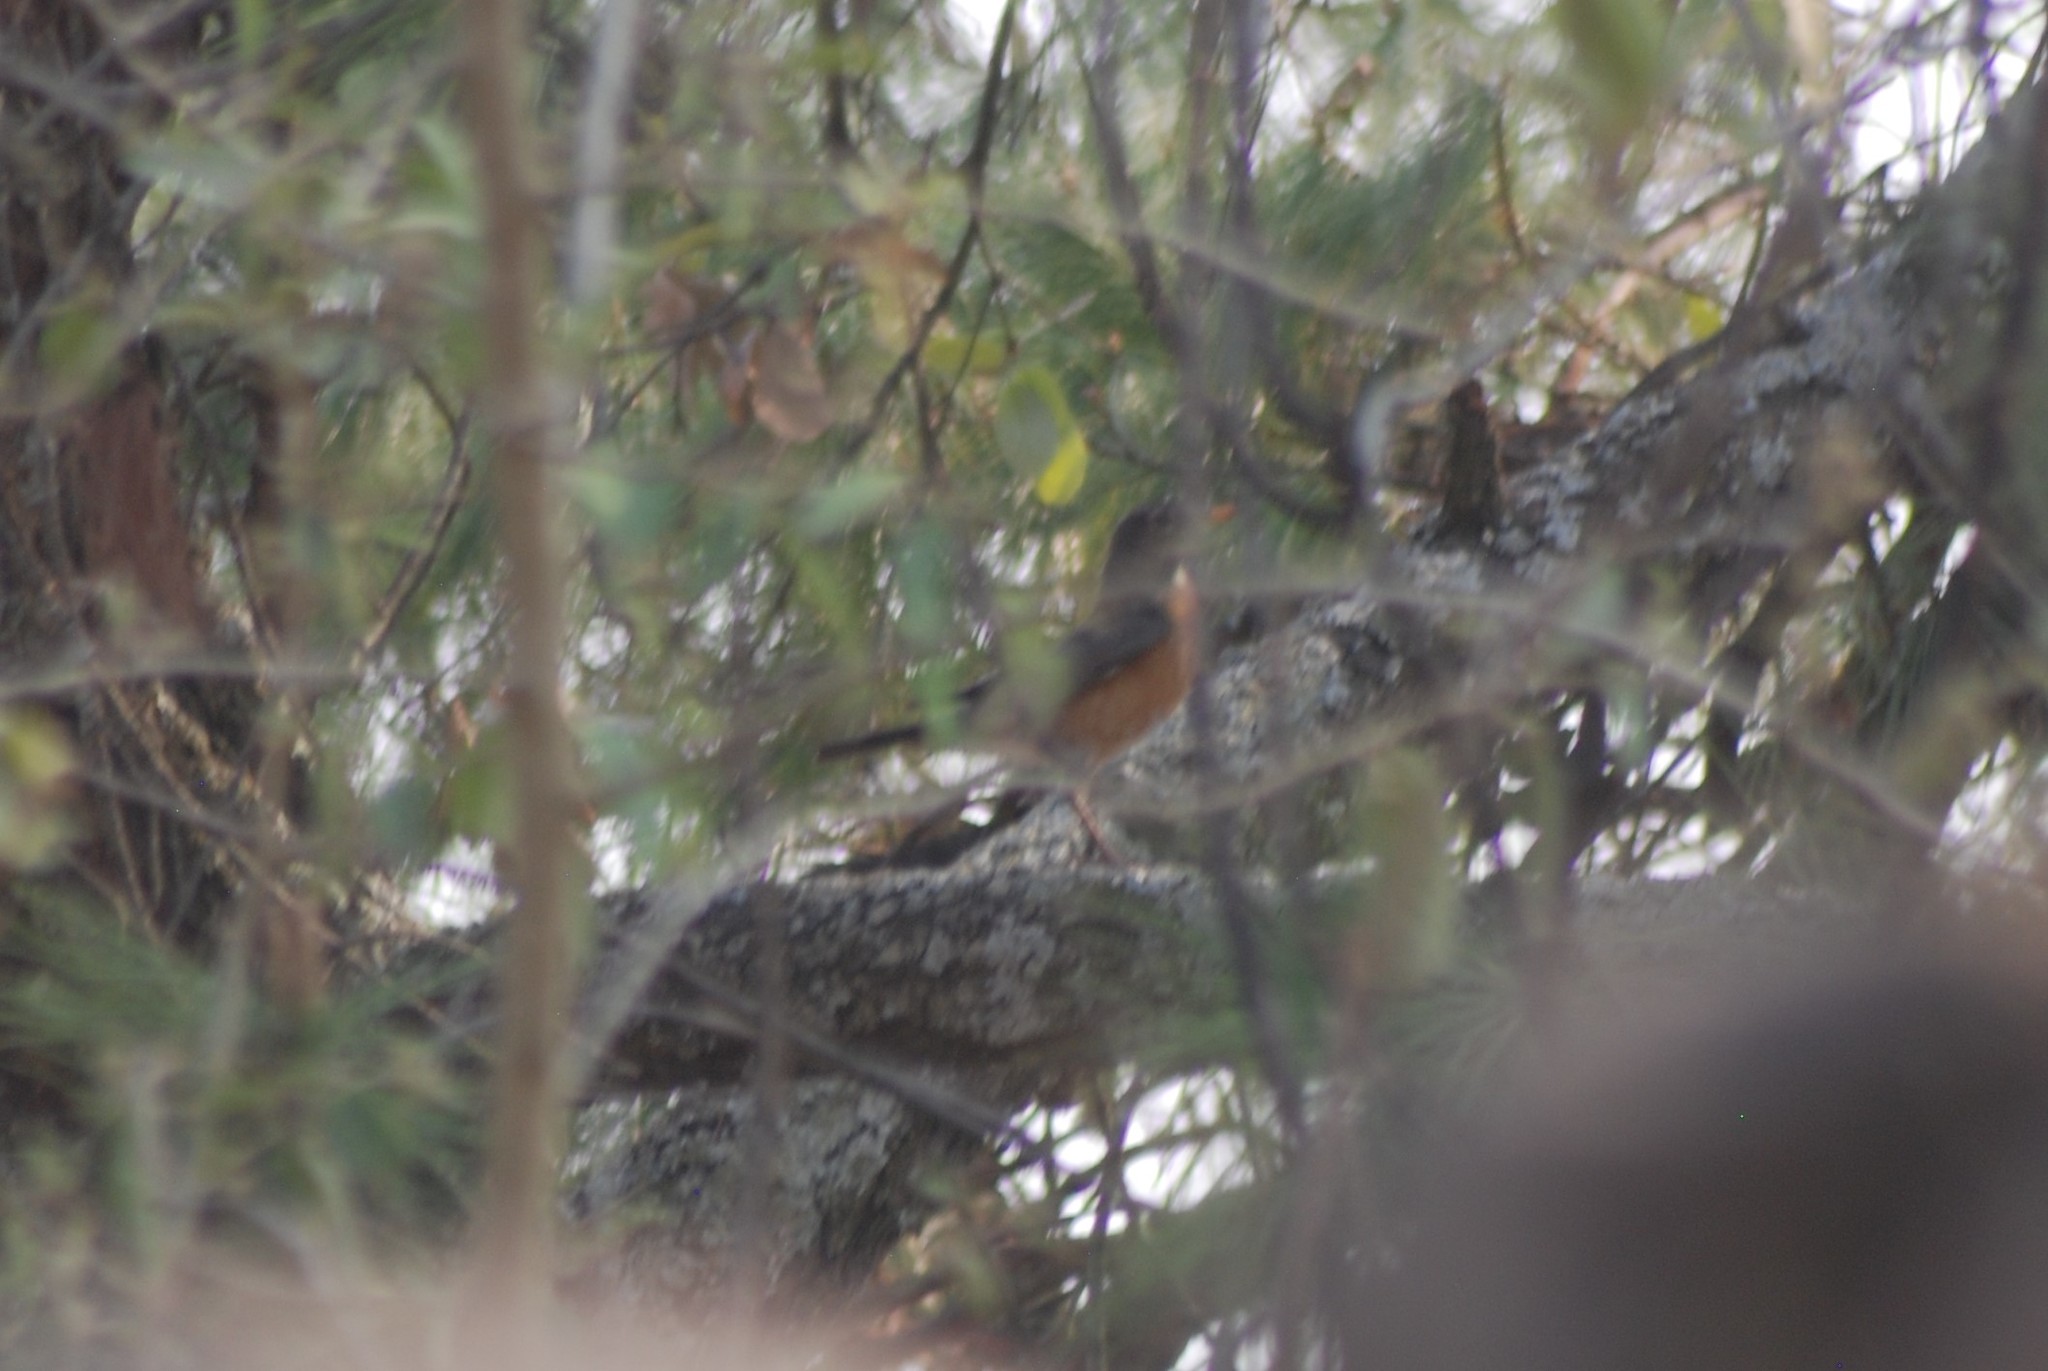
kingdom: Animalia
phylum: Chordata
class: Aves
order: Passeriformes
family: Turdidae
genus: Turdus
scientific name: Turdus migratorius
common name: American robin
